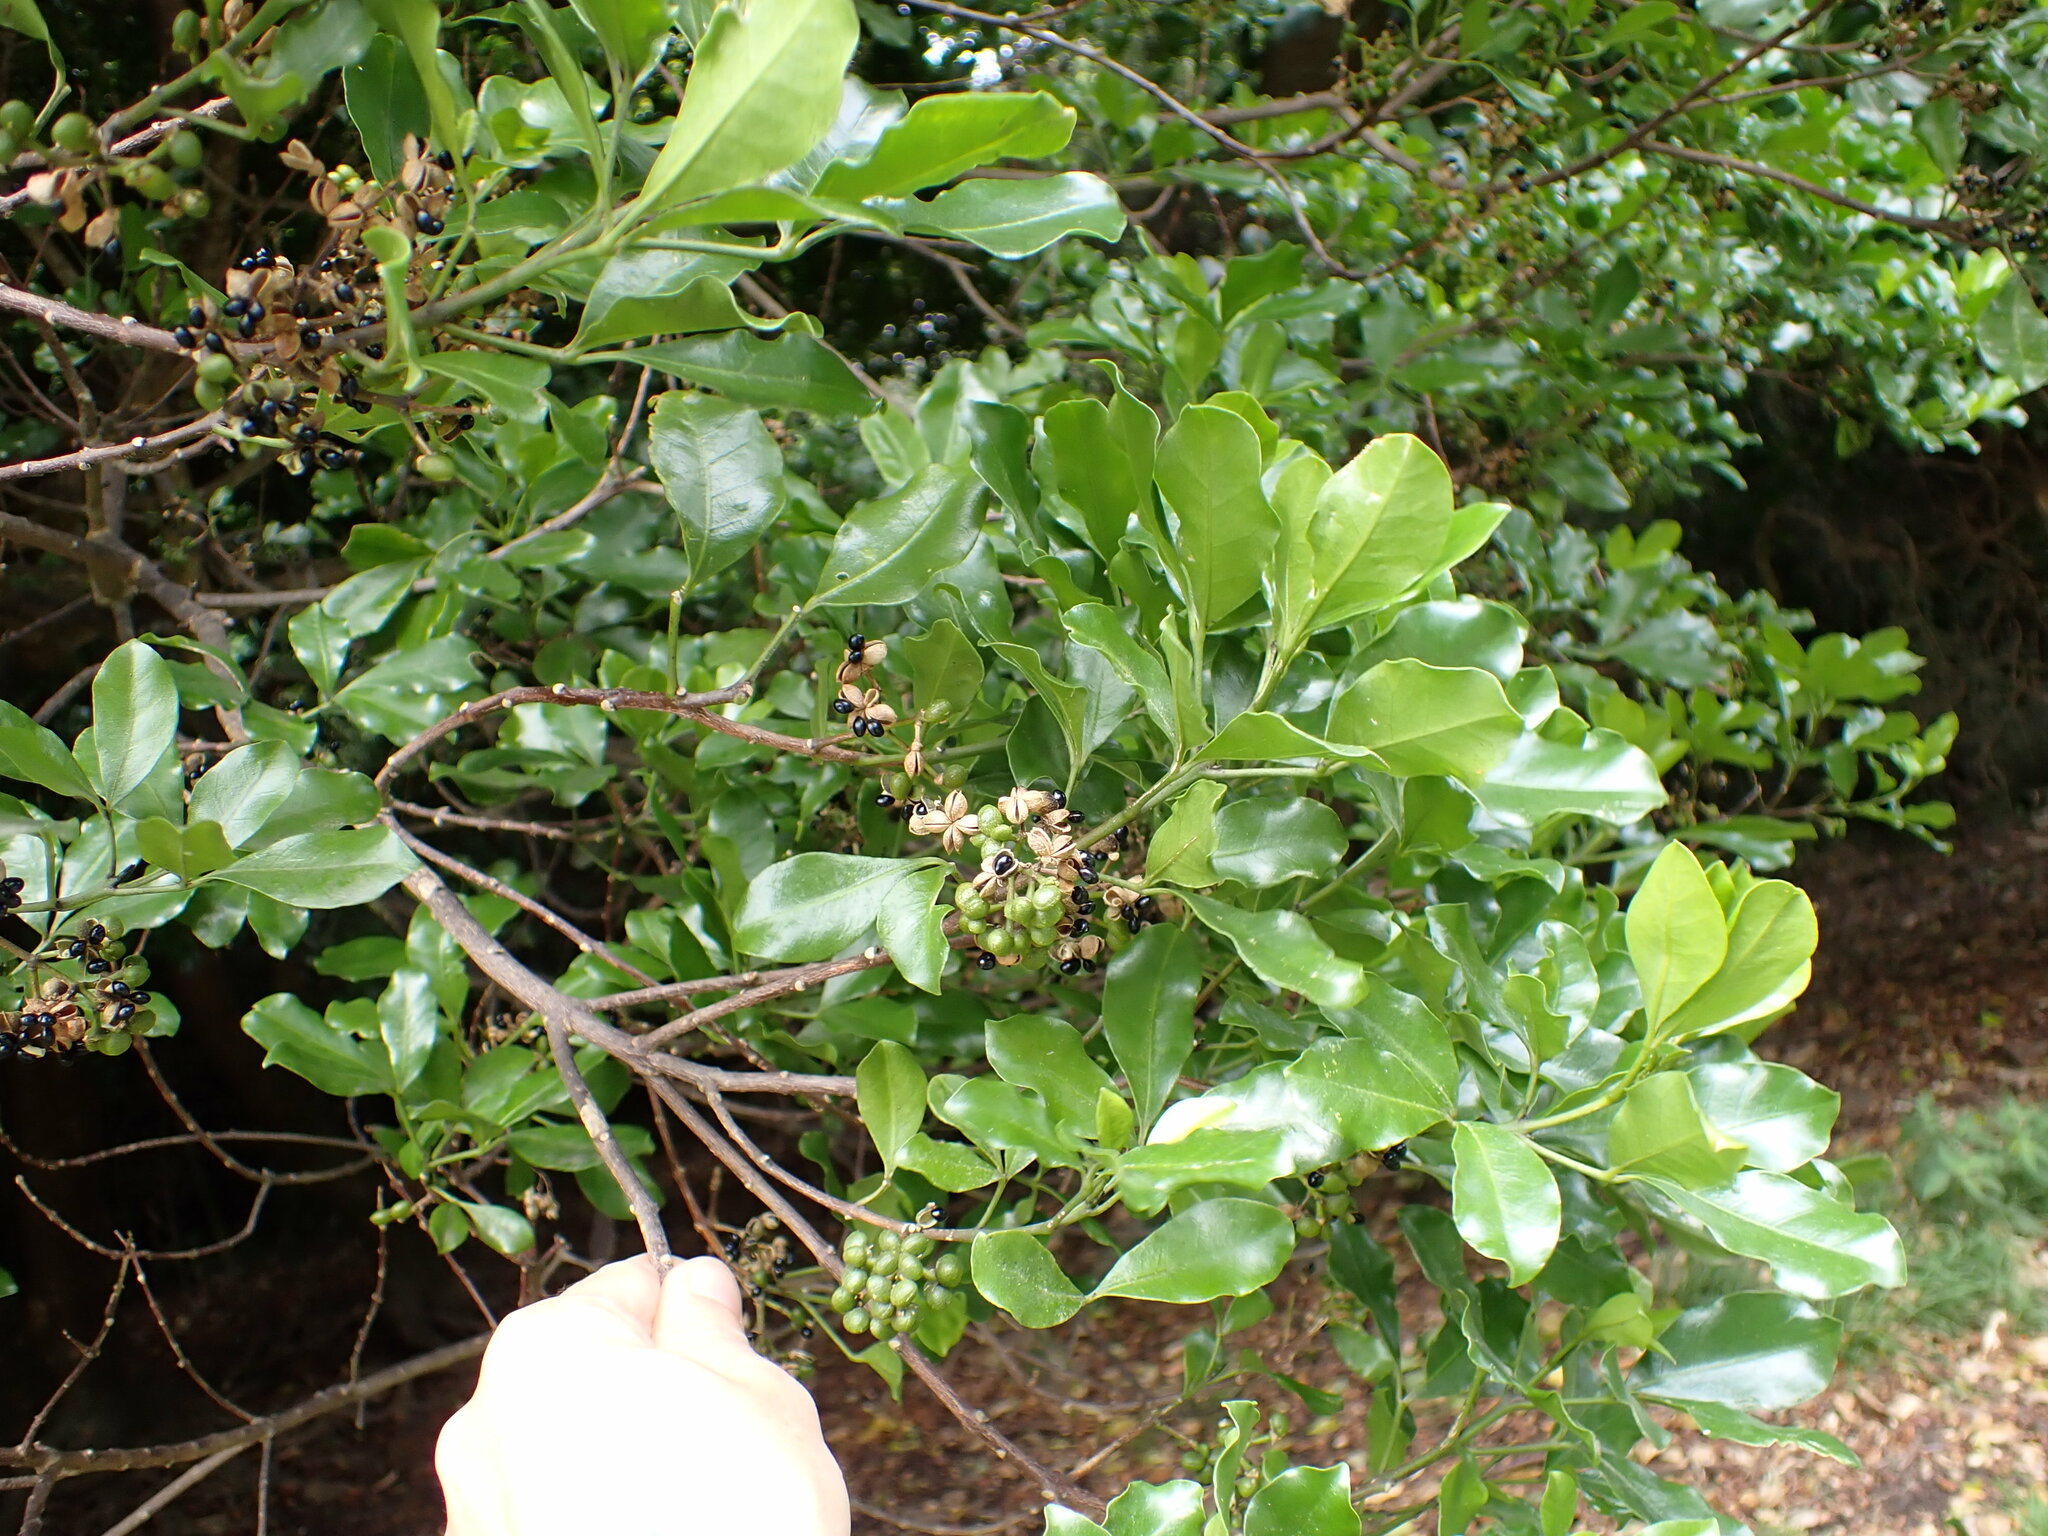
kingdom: Plantae
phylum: Tracheophyta
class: Magnoliopsida
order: Sapindales
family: Rutaceae
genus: Melicope
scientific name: Melicope ternata
